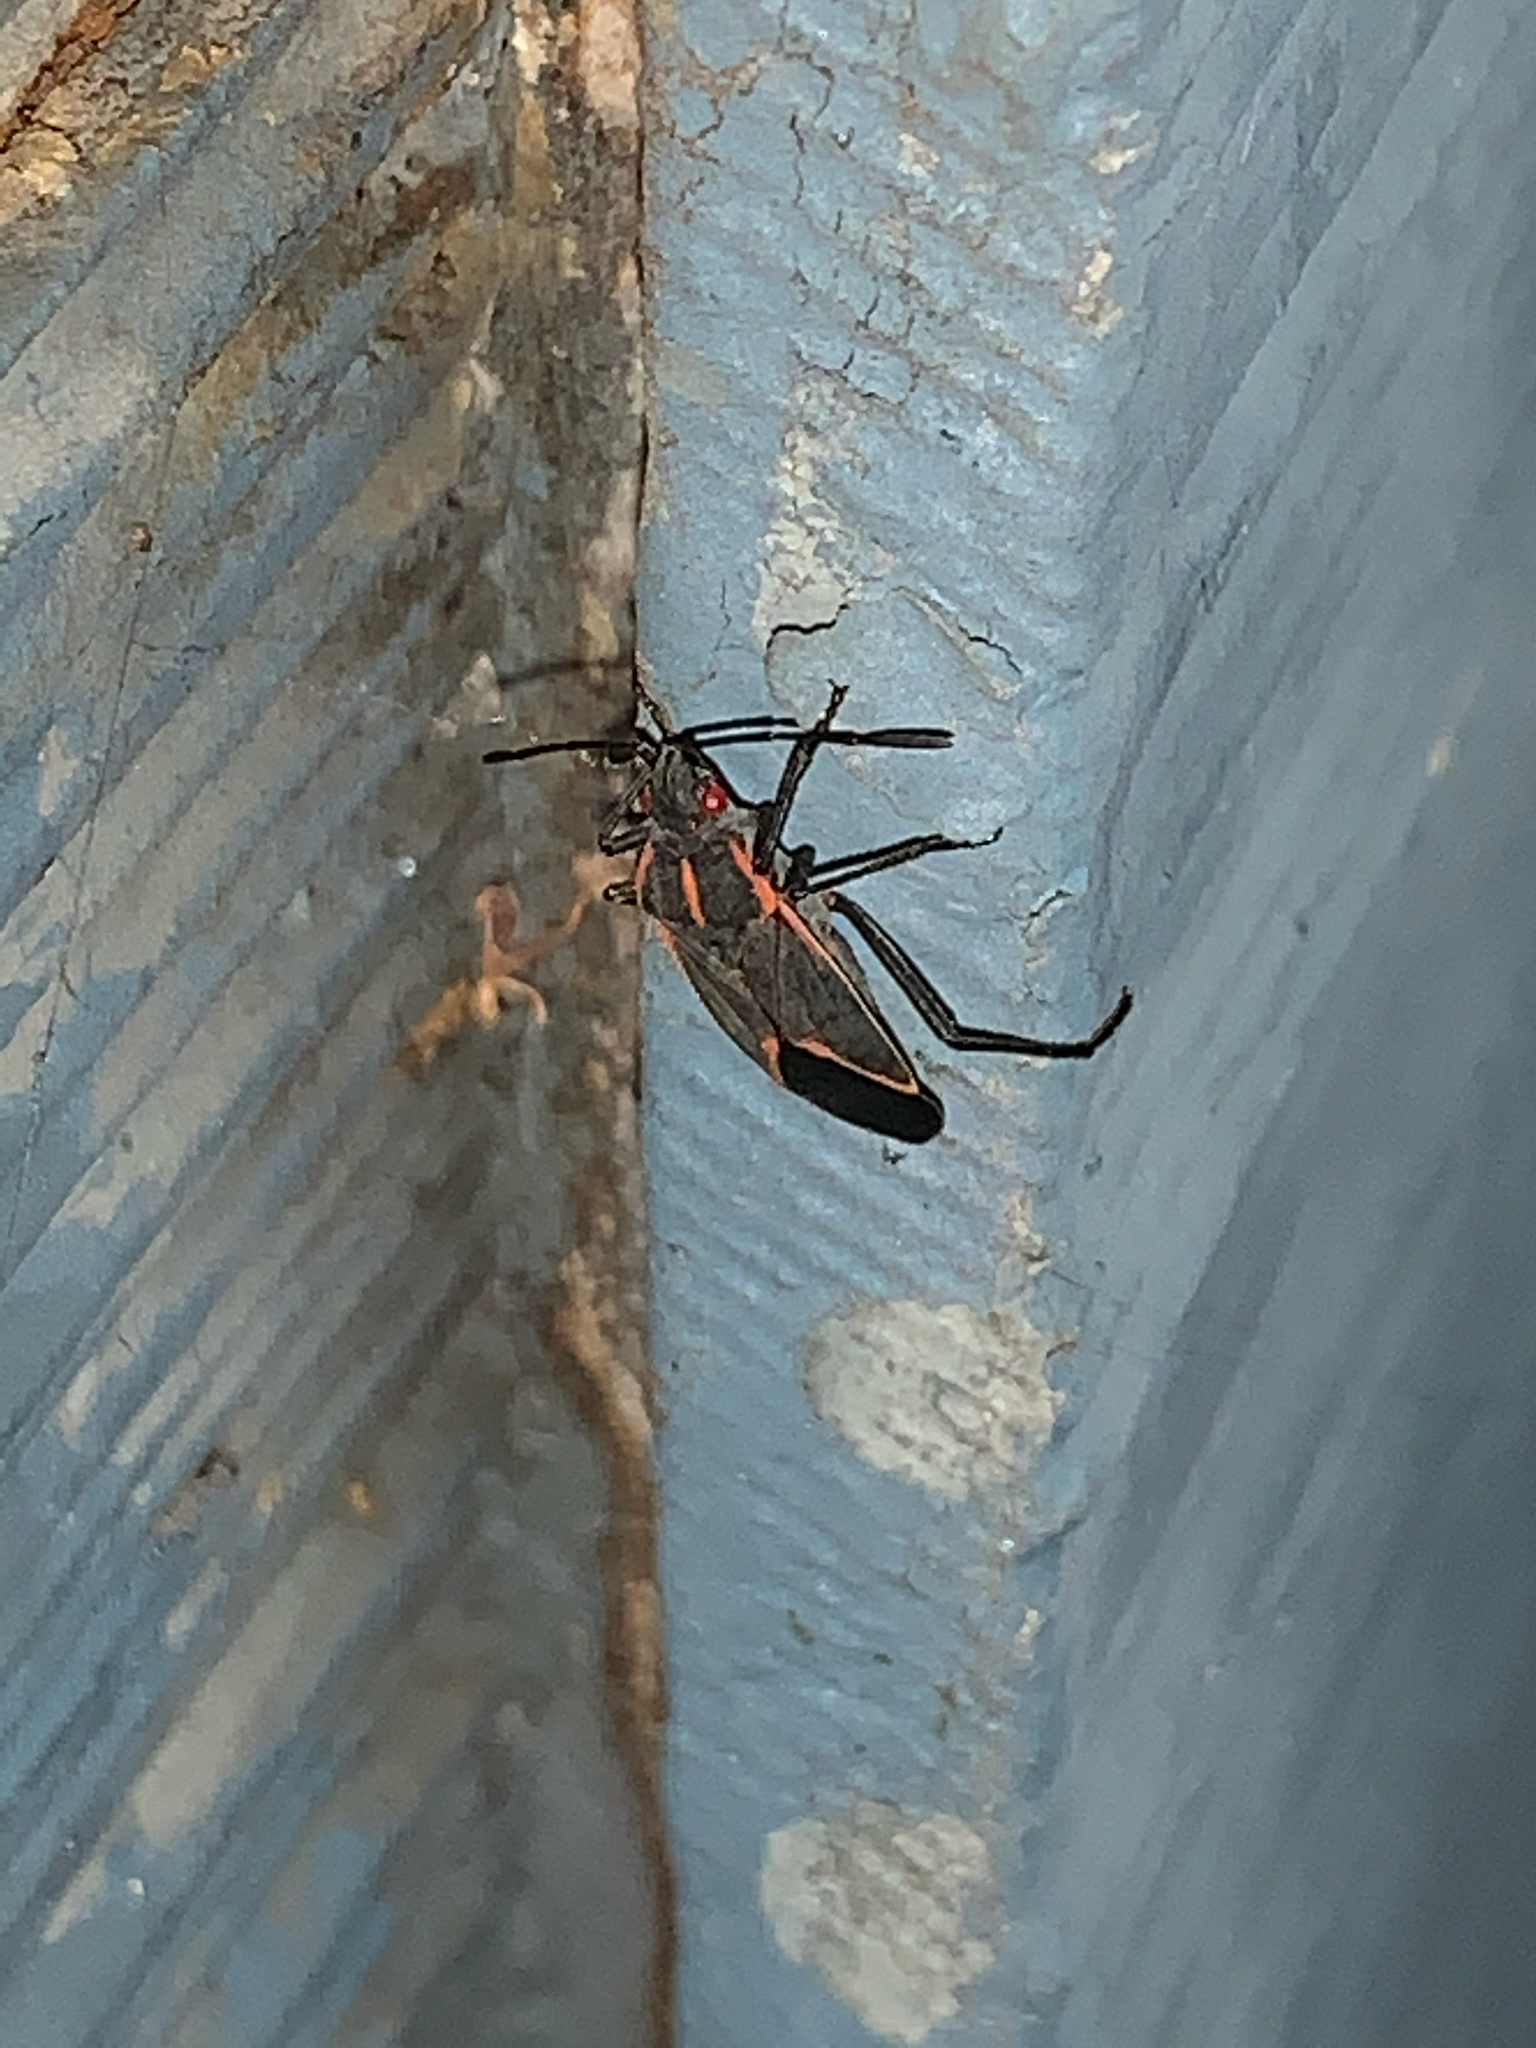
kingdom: Animalia
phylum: Arthropoda
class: Insecta
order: Hemiptera
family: Rhopalidae
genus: Boisea
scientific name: Boisea trivittata
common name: Boxelder bug
